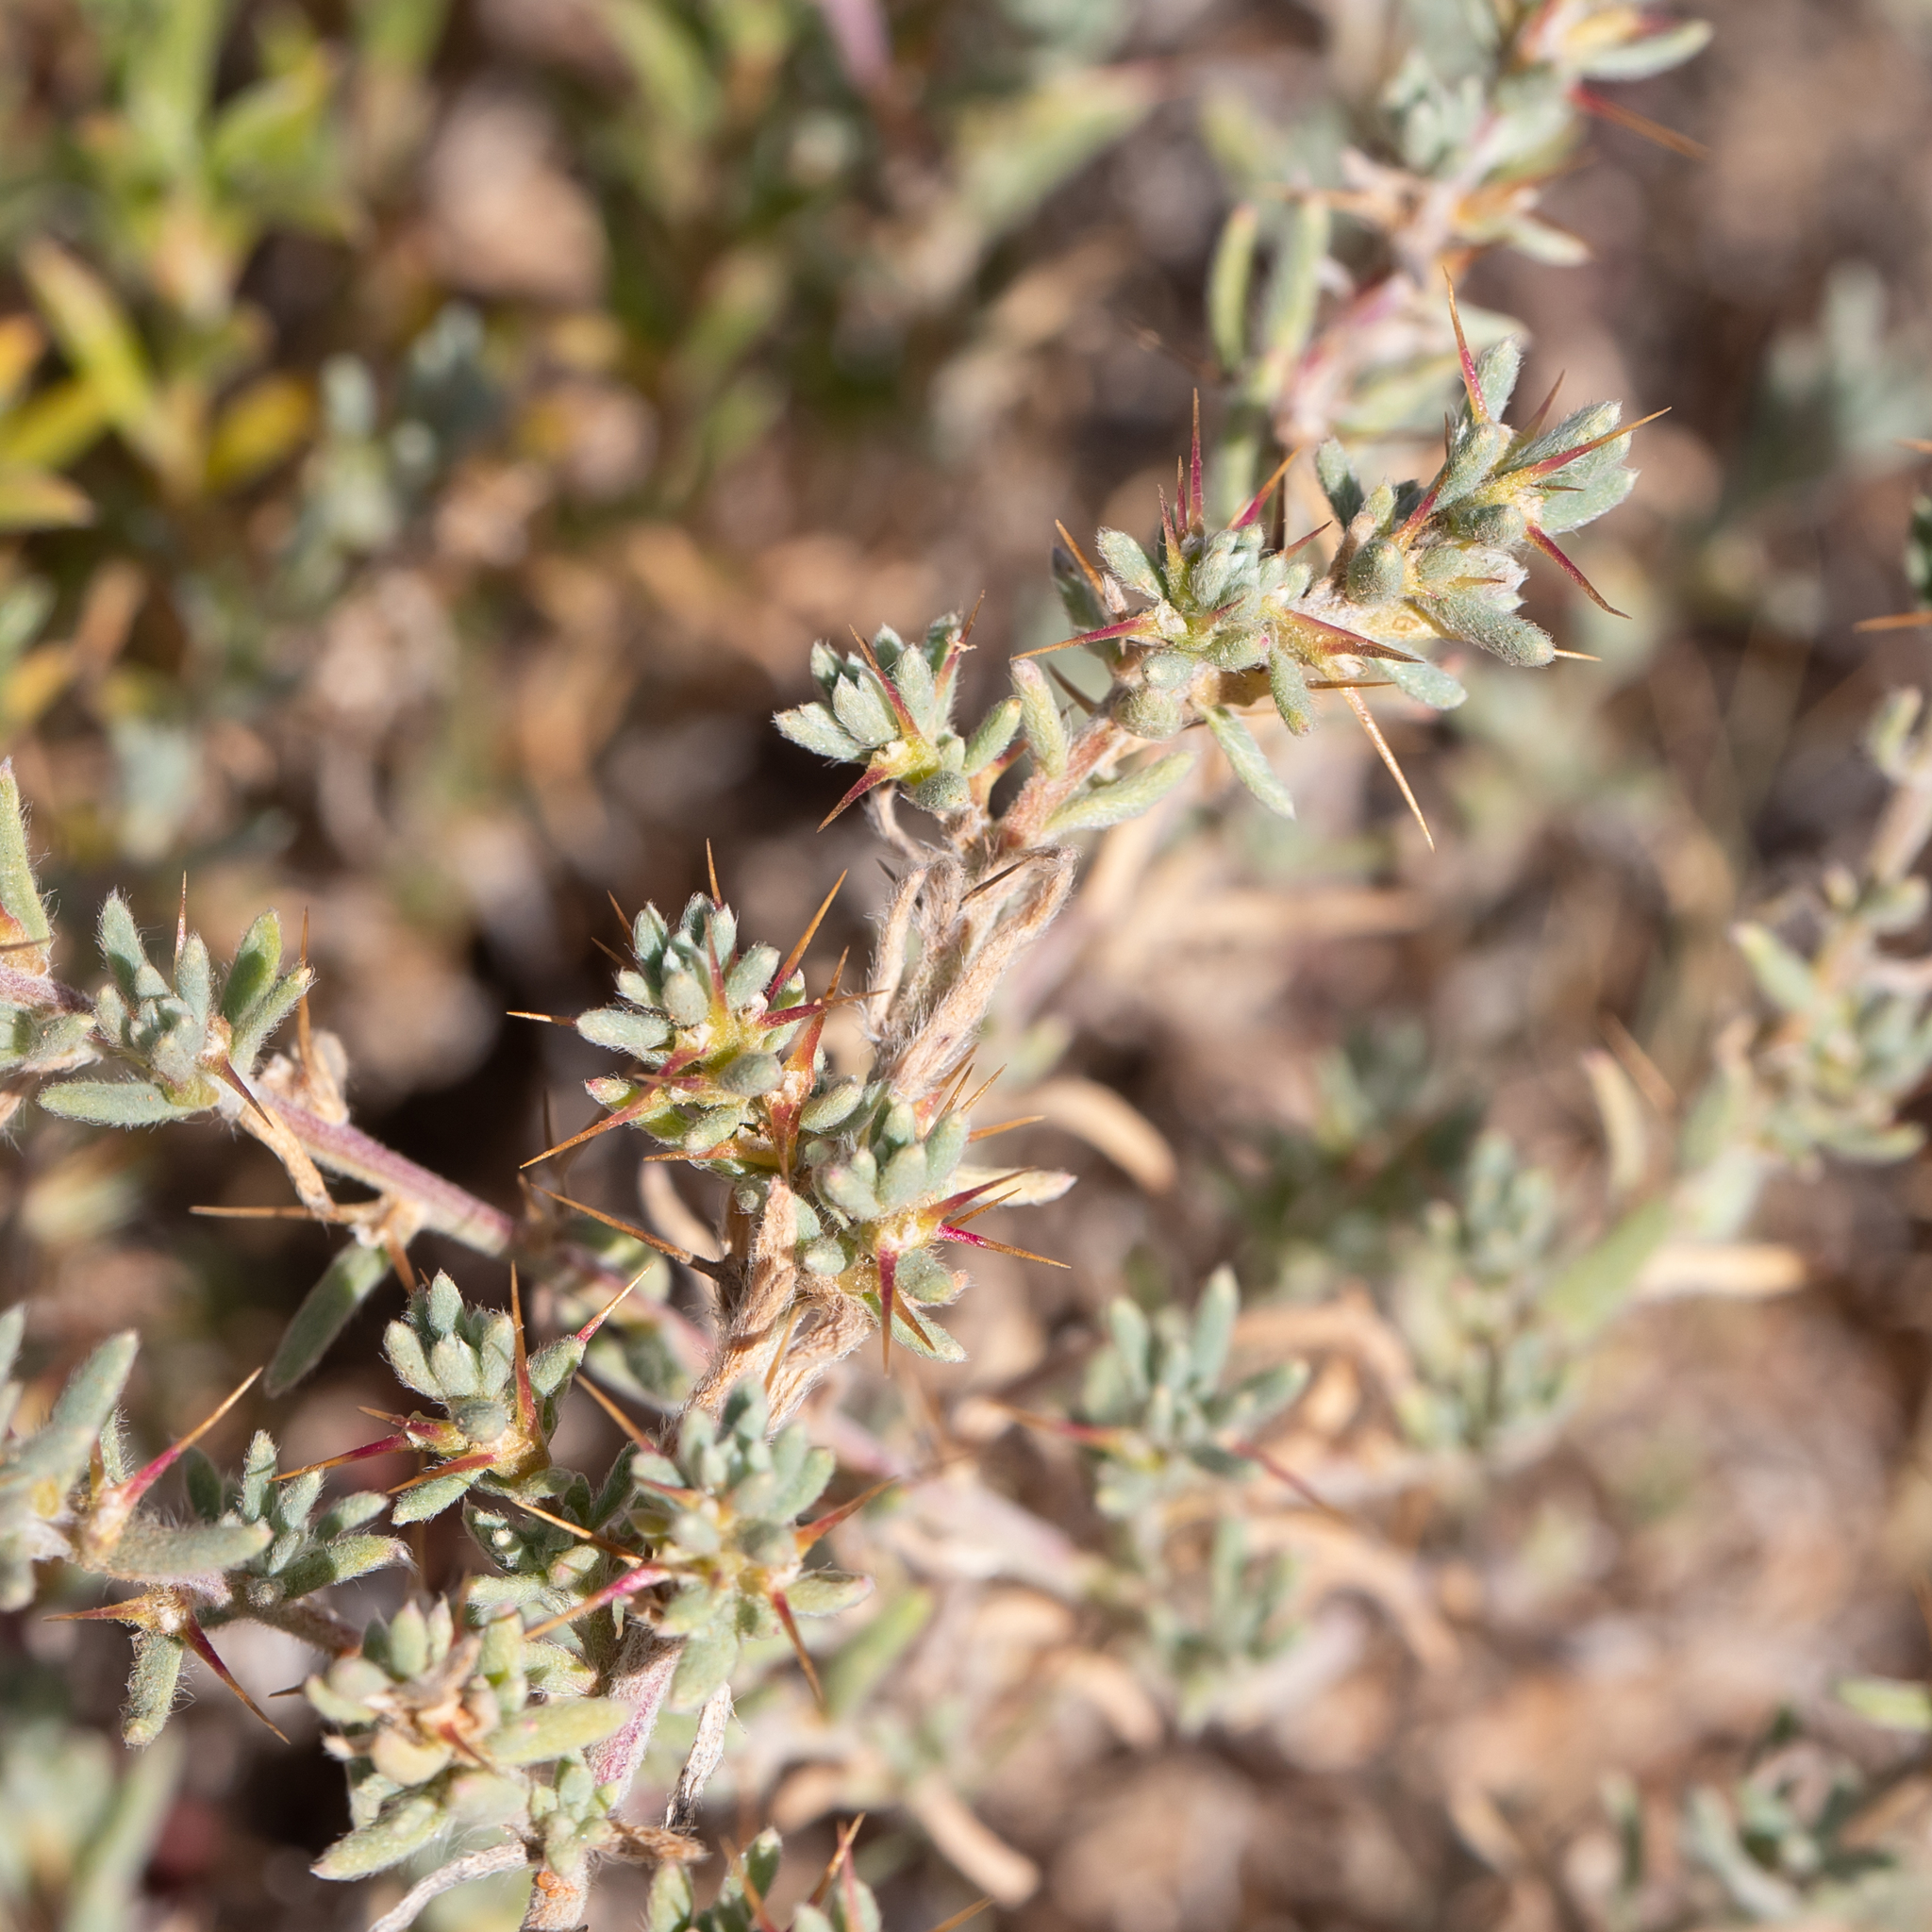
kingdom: Plantae
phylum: Tracheophyta
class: Magnoliopsida
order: Caryophyllales
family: Amaranthaceae
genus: Sclerolaena
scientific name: Sclerolaena obliquicuspis
